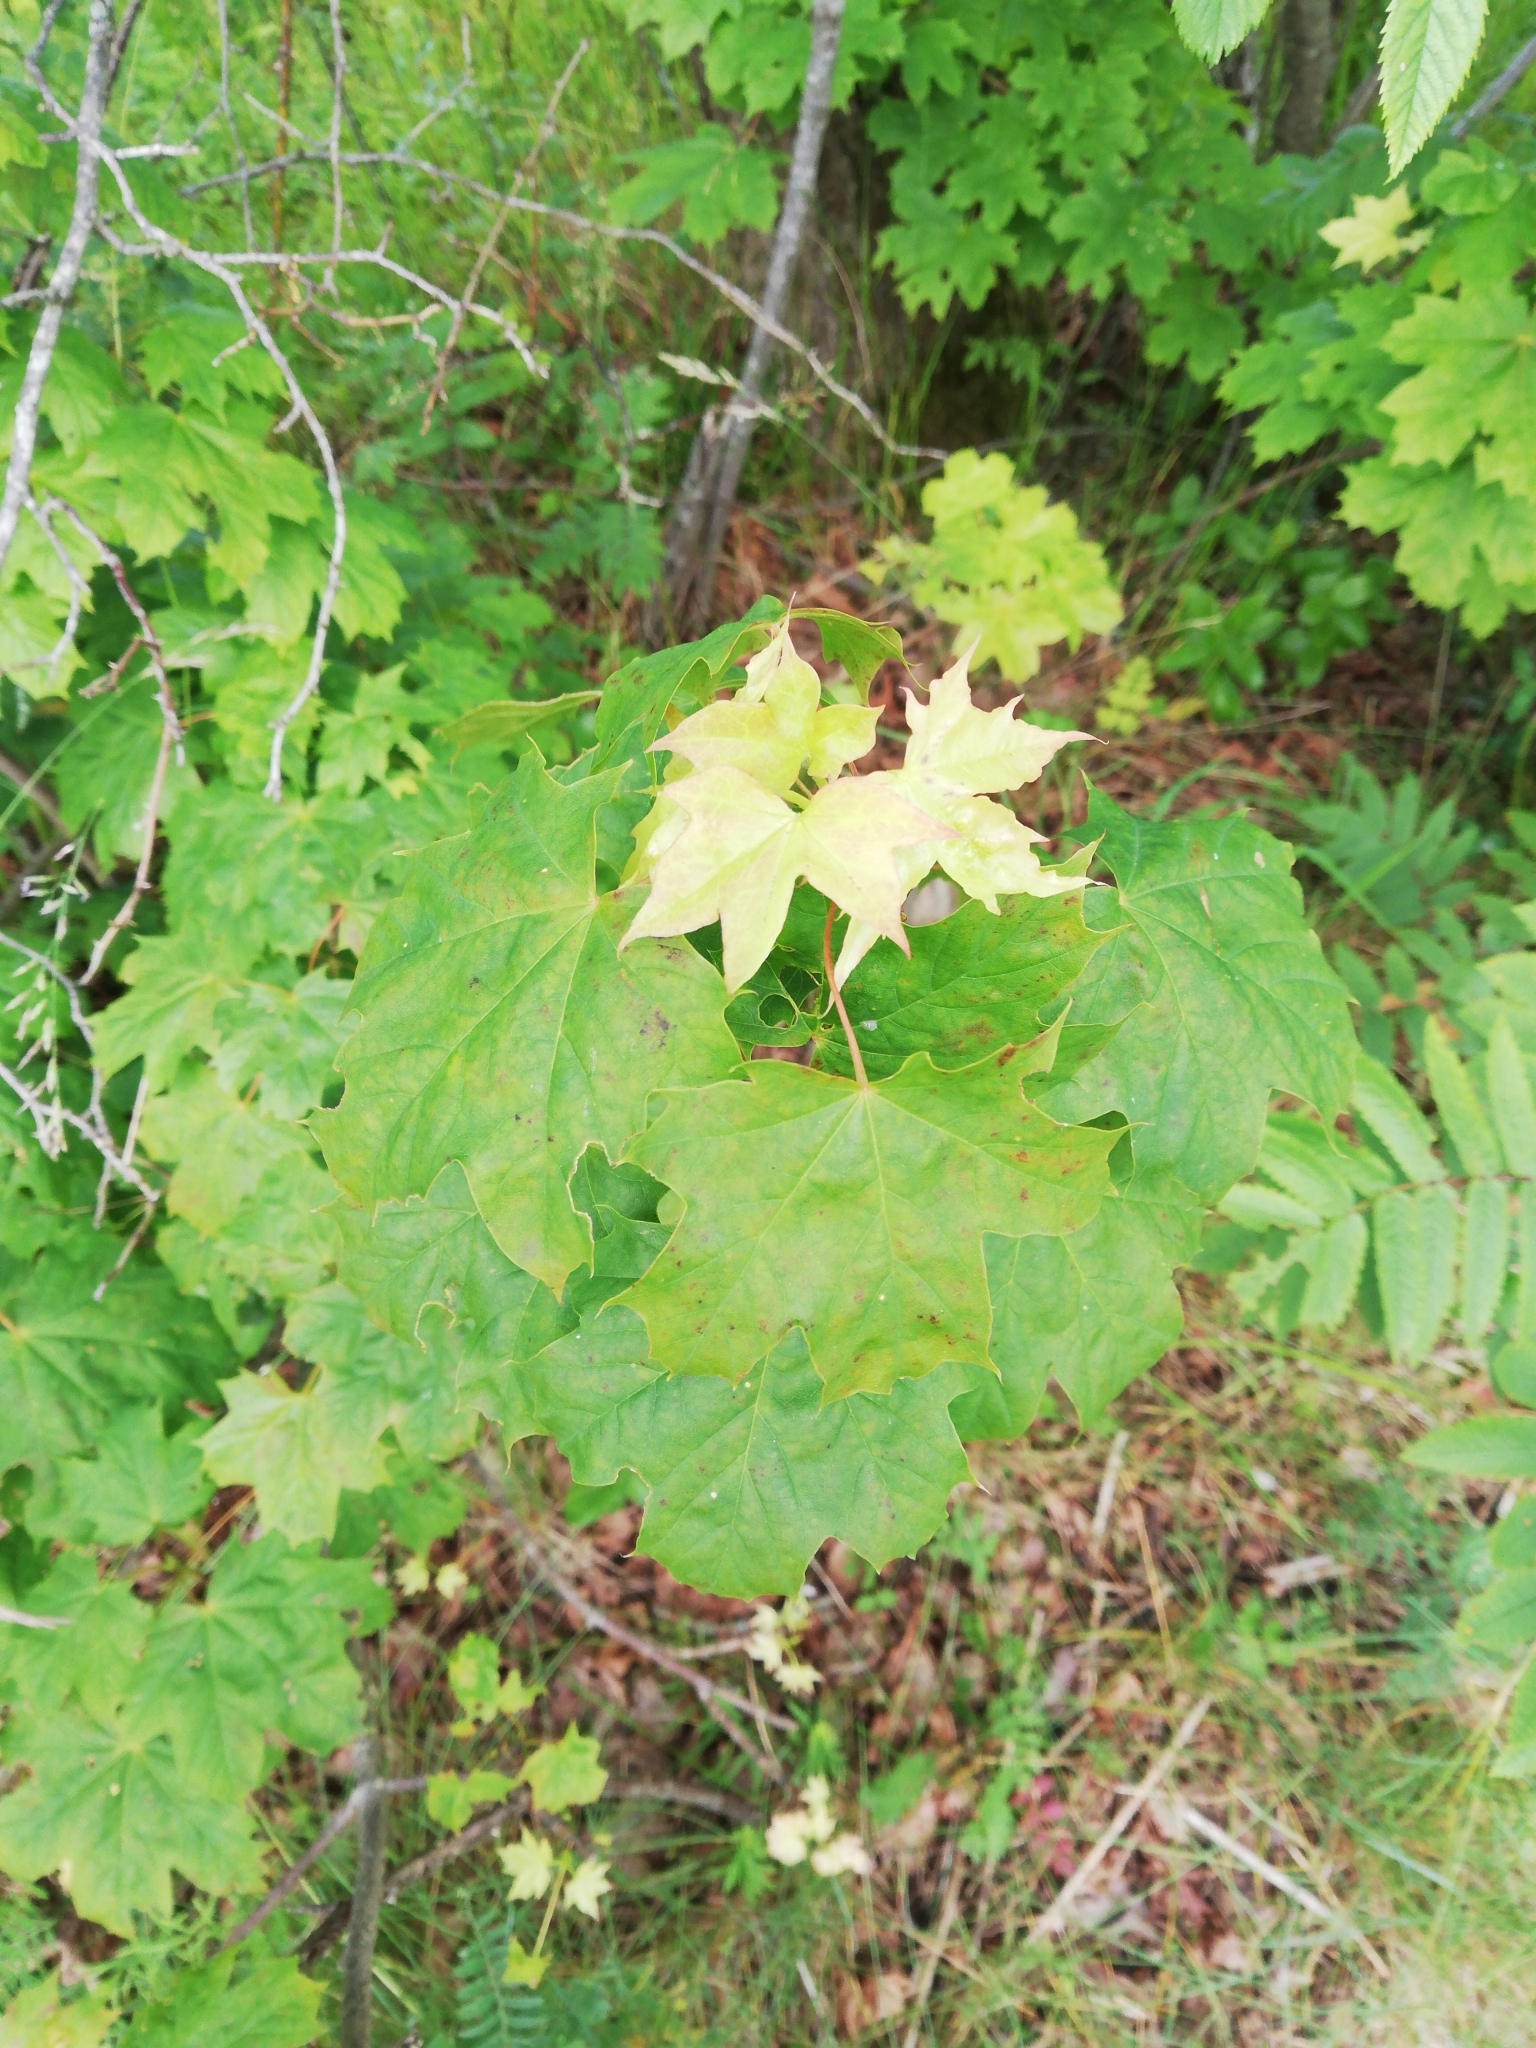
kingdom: Plantae
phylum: Tracheophyta
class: Magnoliopsida
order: Sapindales
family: Sapindaceae
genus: Acer
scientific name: Acer platanoides
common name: Norway maple
